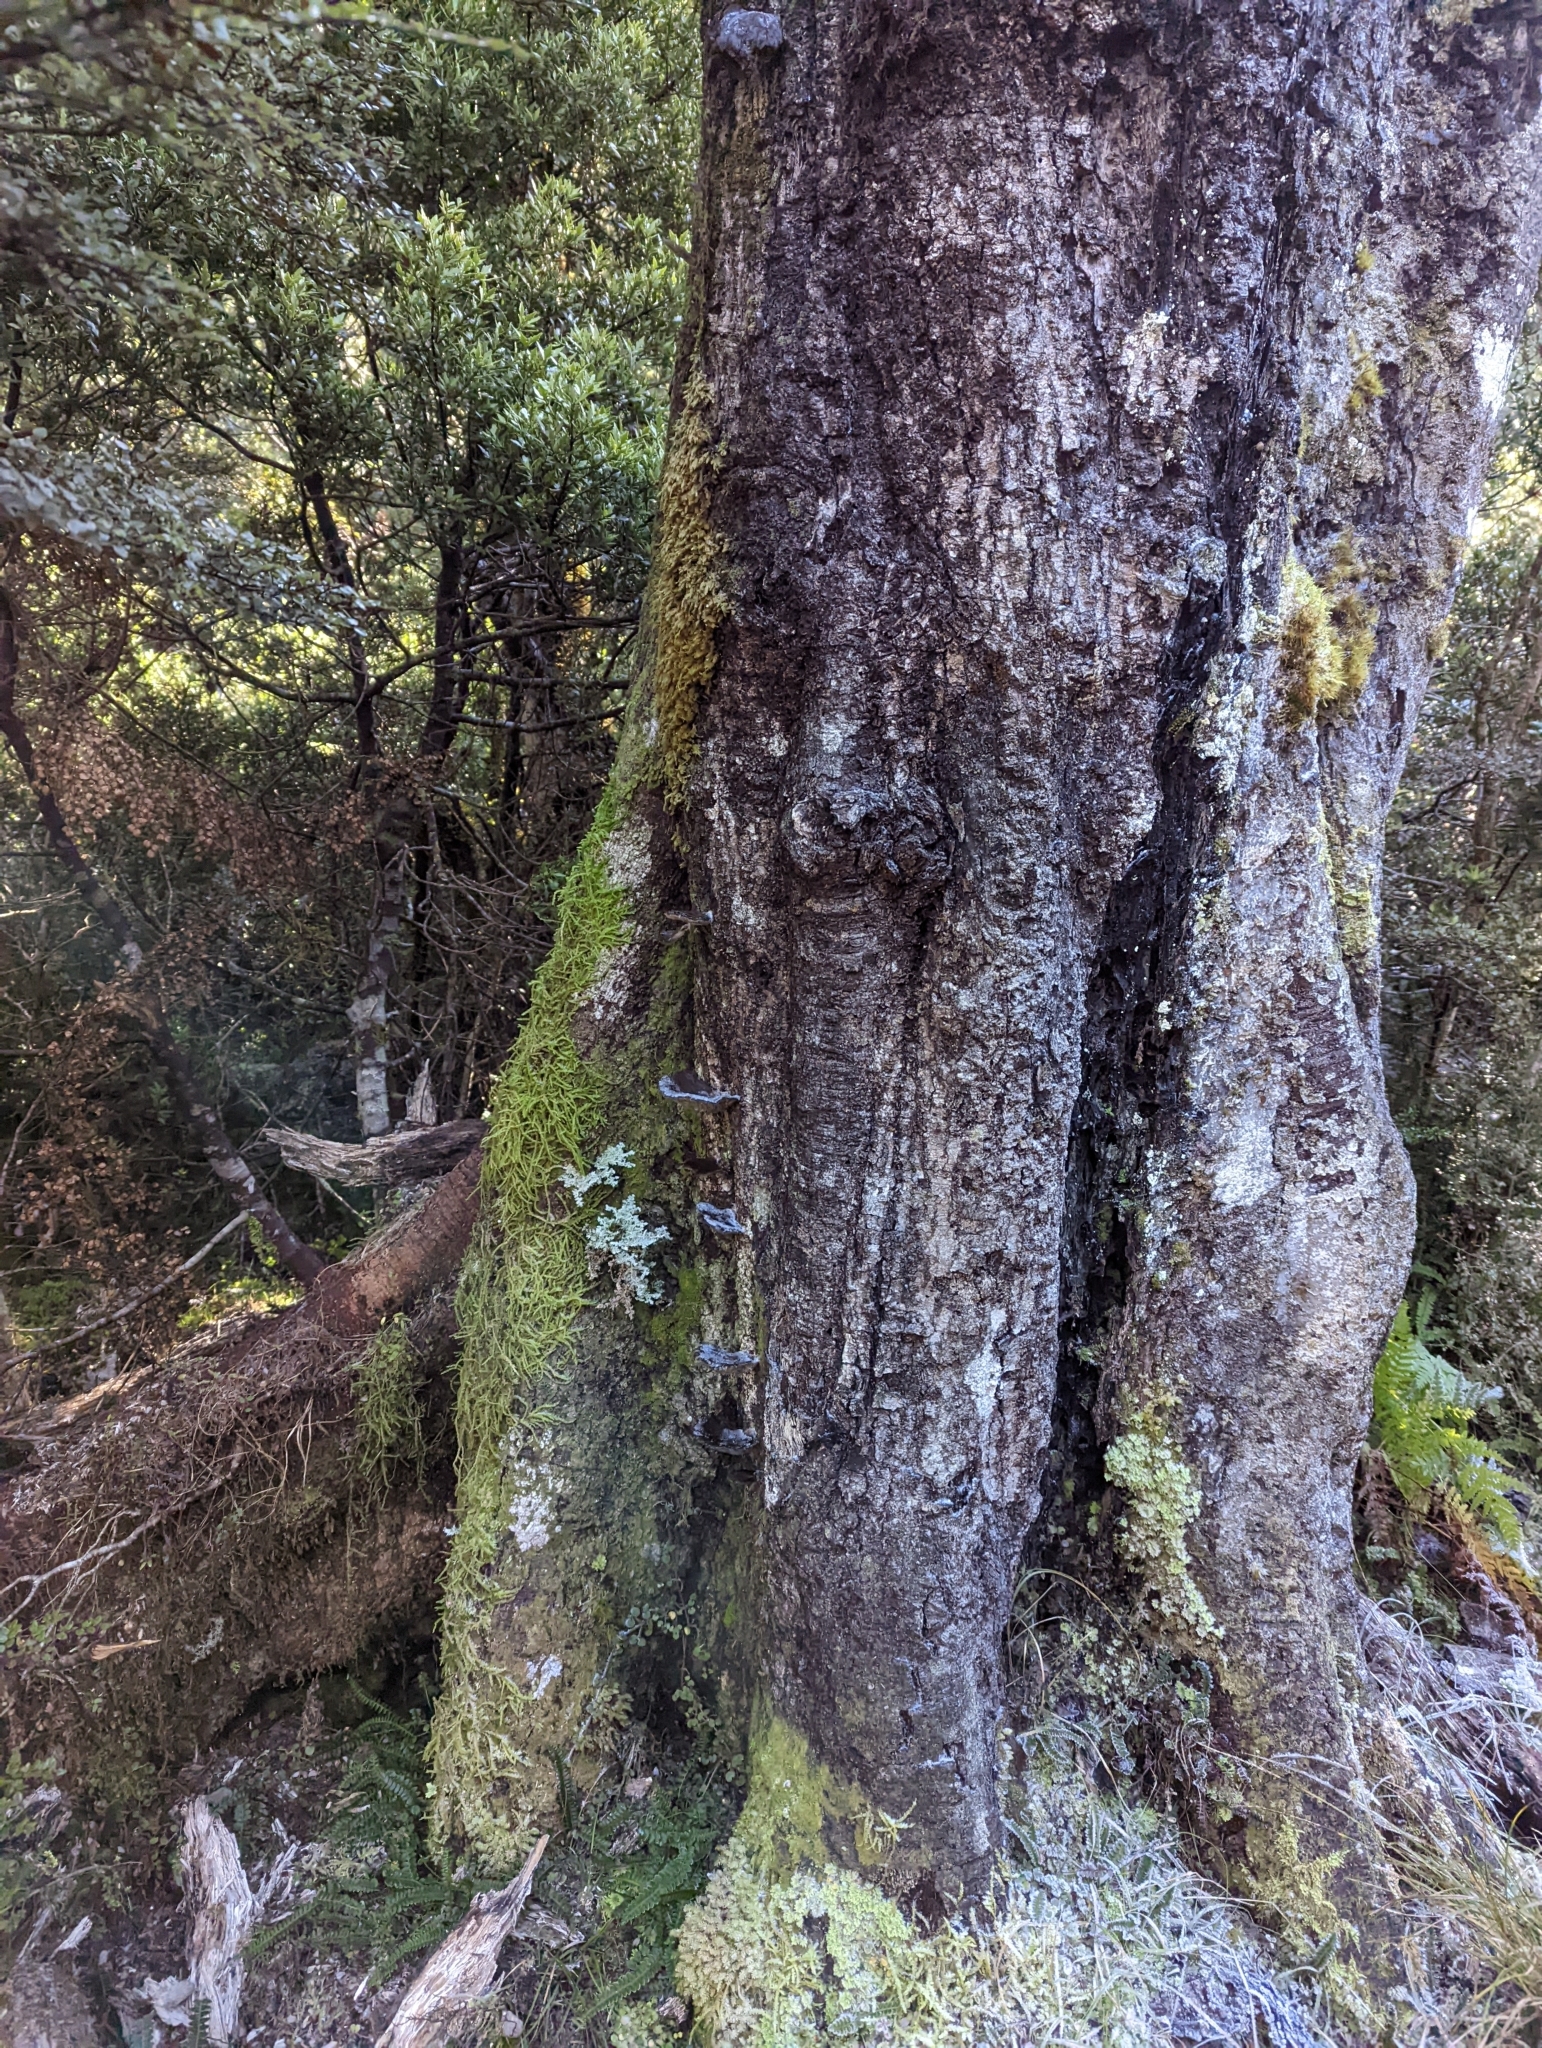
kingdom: Fungi
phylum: Basidiomycota
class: Agaricomycetes
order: Agaricales
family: Pleurotaceae
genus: Pleurotus
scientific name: Pleurotus purpureo-olivaceus
